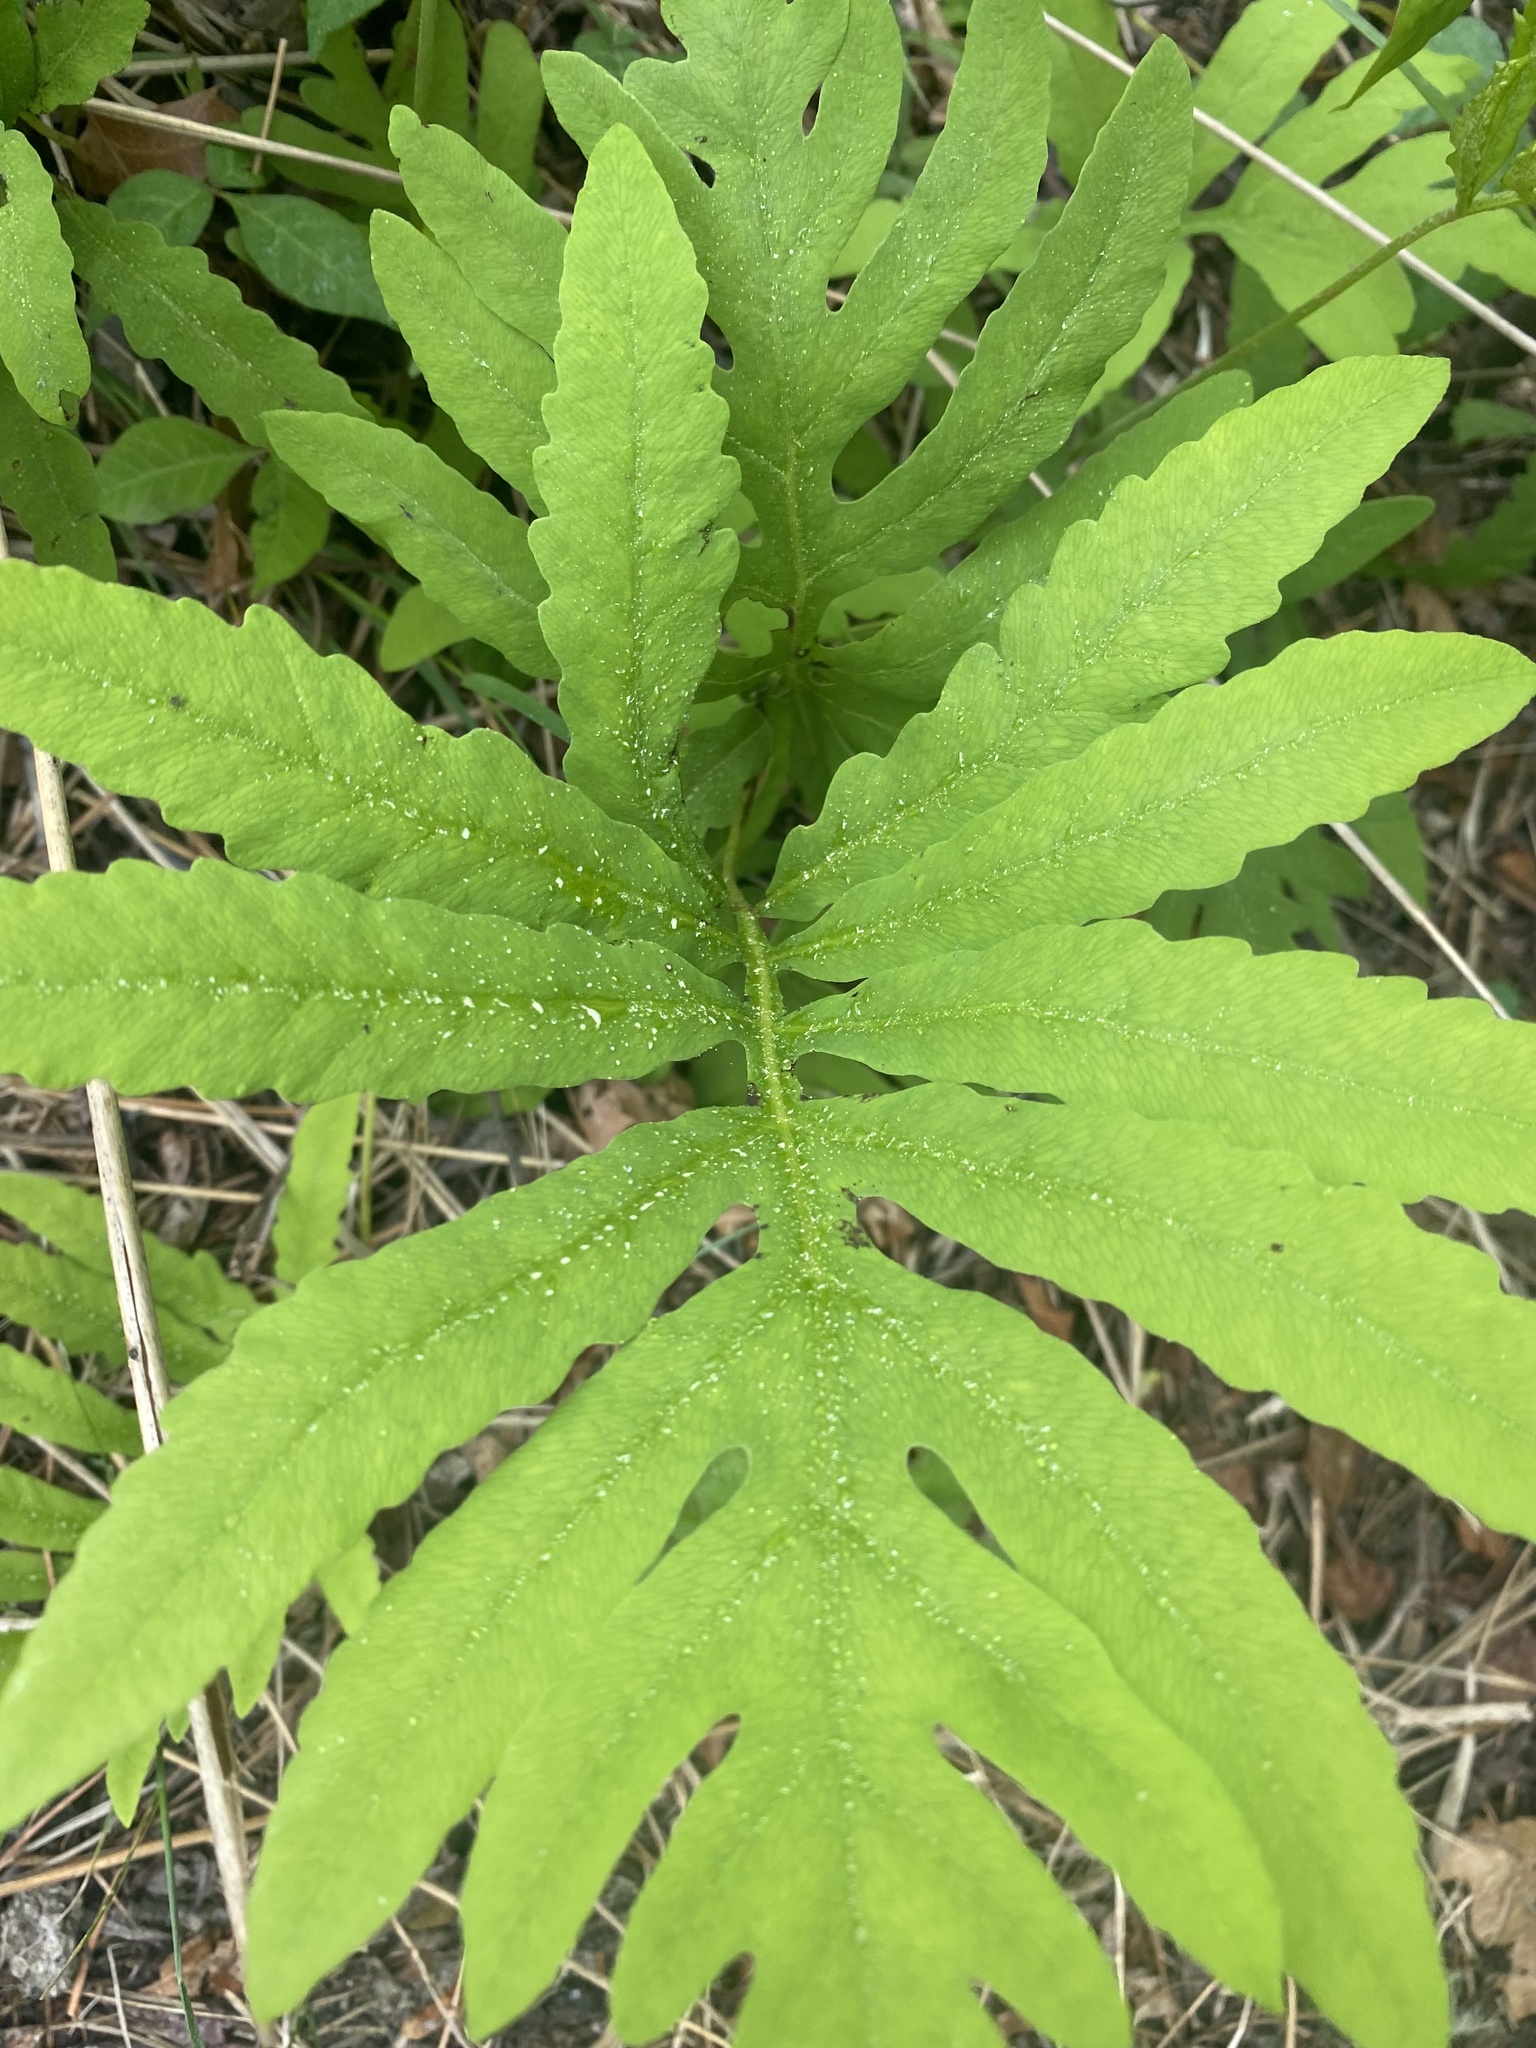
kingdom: Plantae
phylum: Tracheophyta
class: Polypodiopsida
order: Polypodiales
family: Onocleaceae
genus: Onoclea
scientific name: Onoclea sensibilis
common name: Sensitive fern
